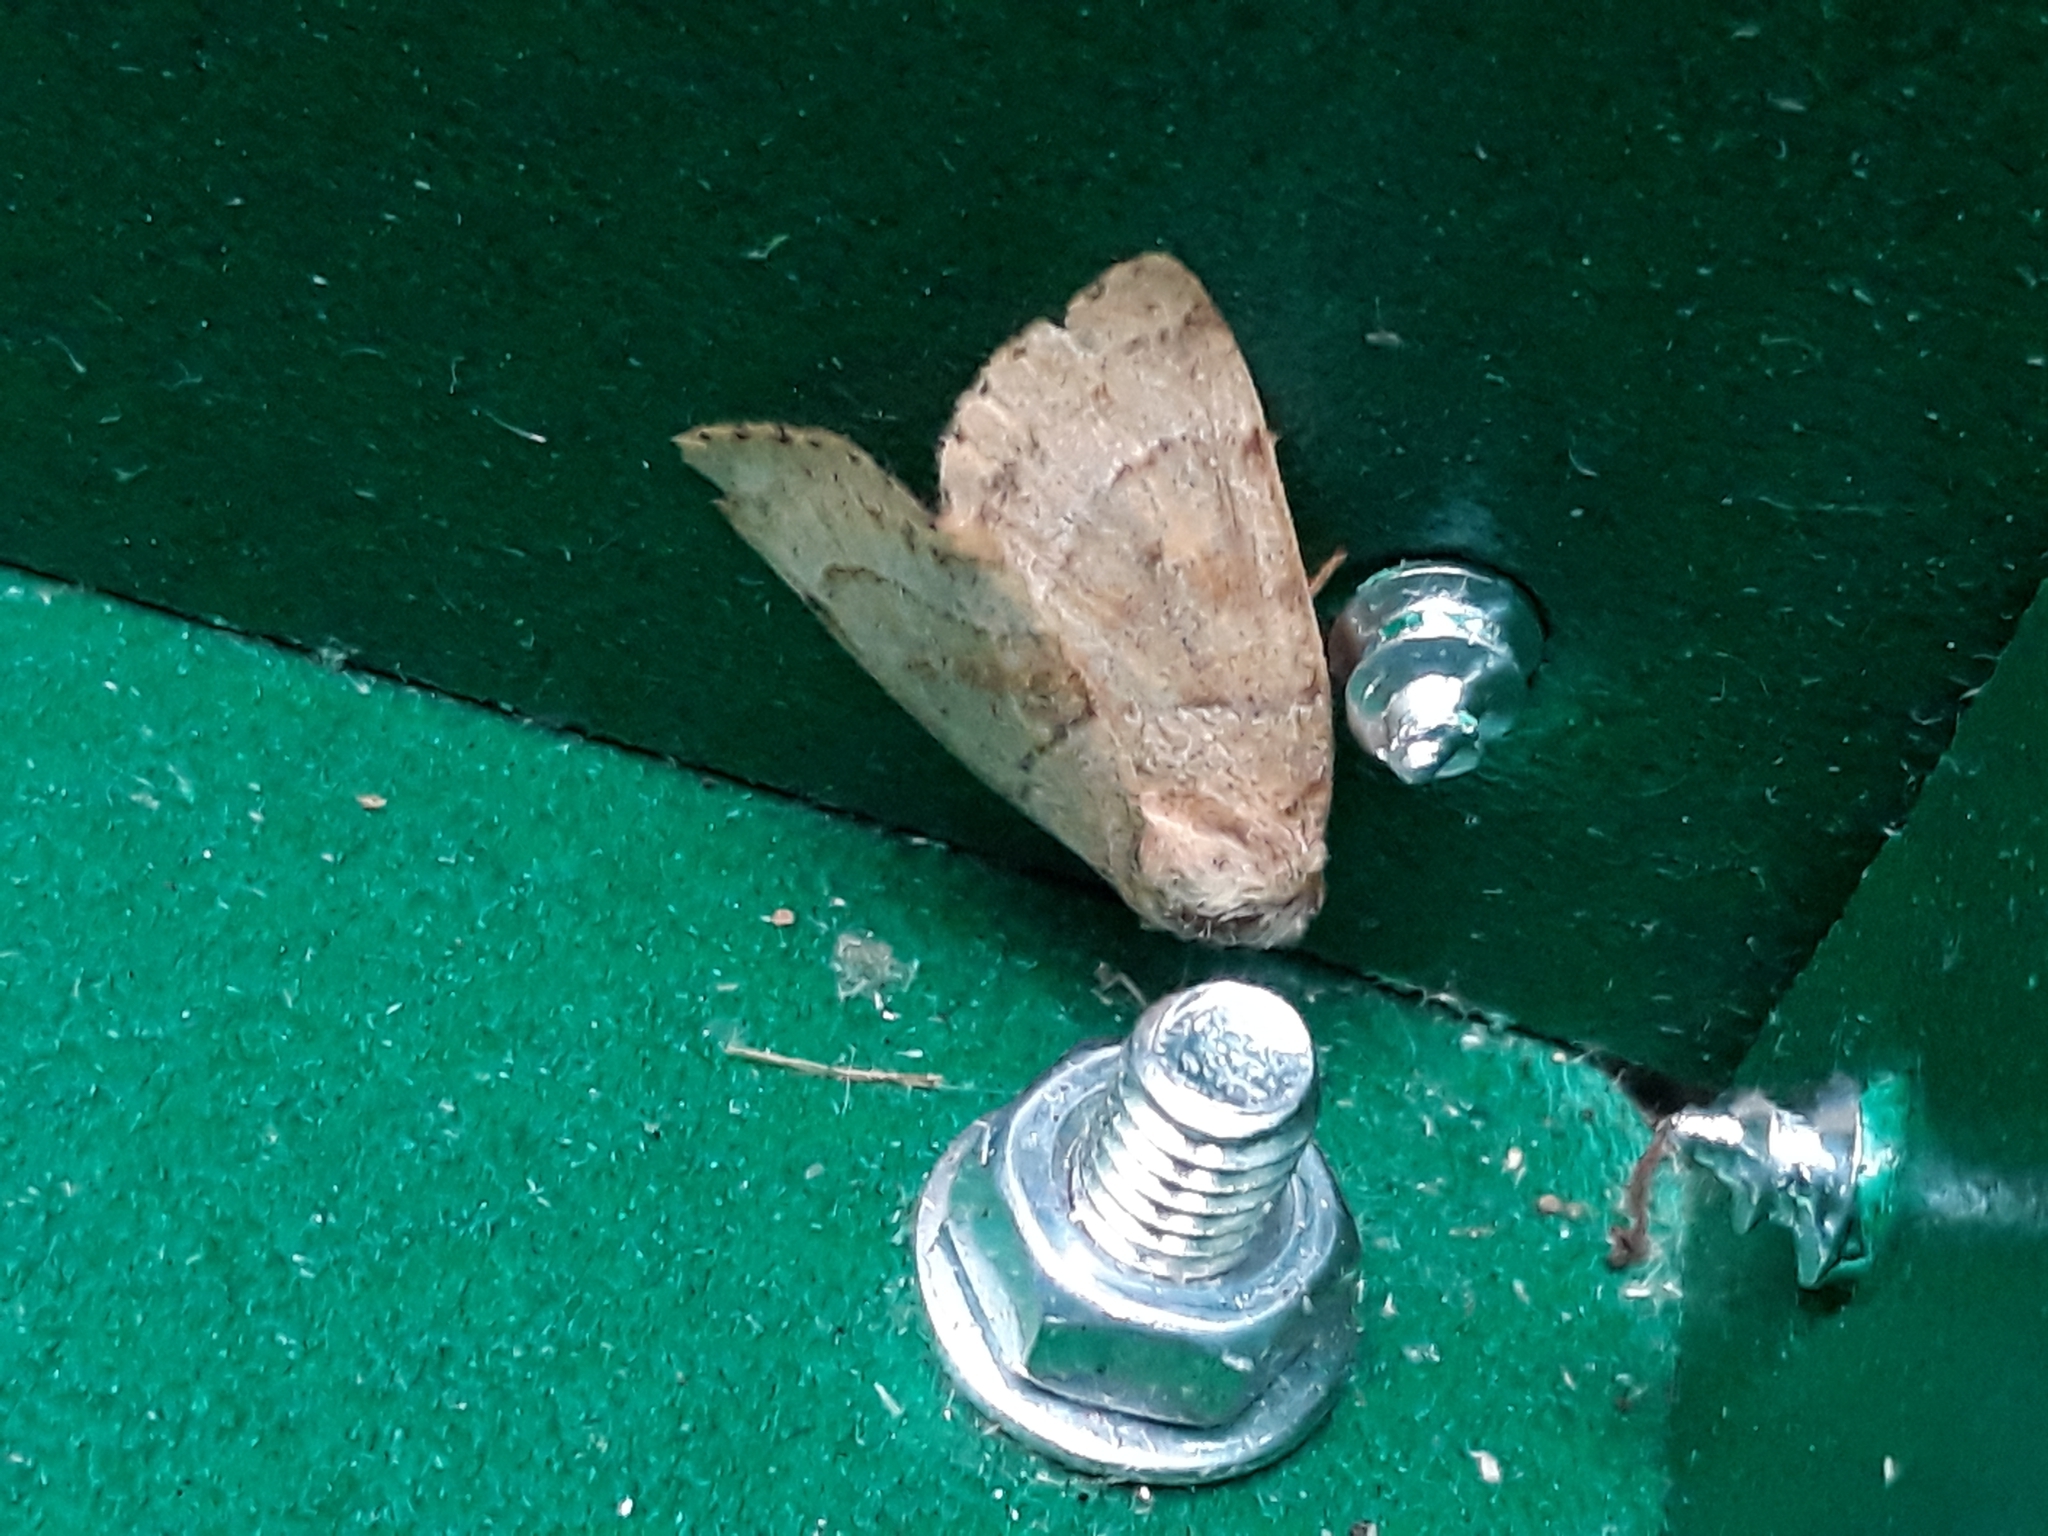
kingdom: Animalia
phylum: Arthropoda
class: Insecta
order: Lepidoptera
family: Noctuidae
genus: Cosmia
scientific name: Cosmia trapezina
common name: Dun-bar
